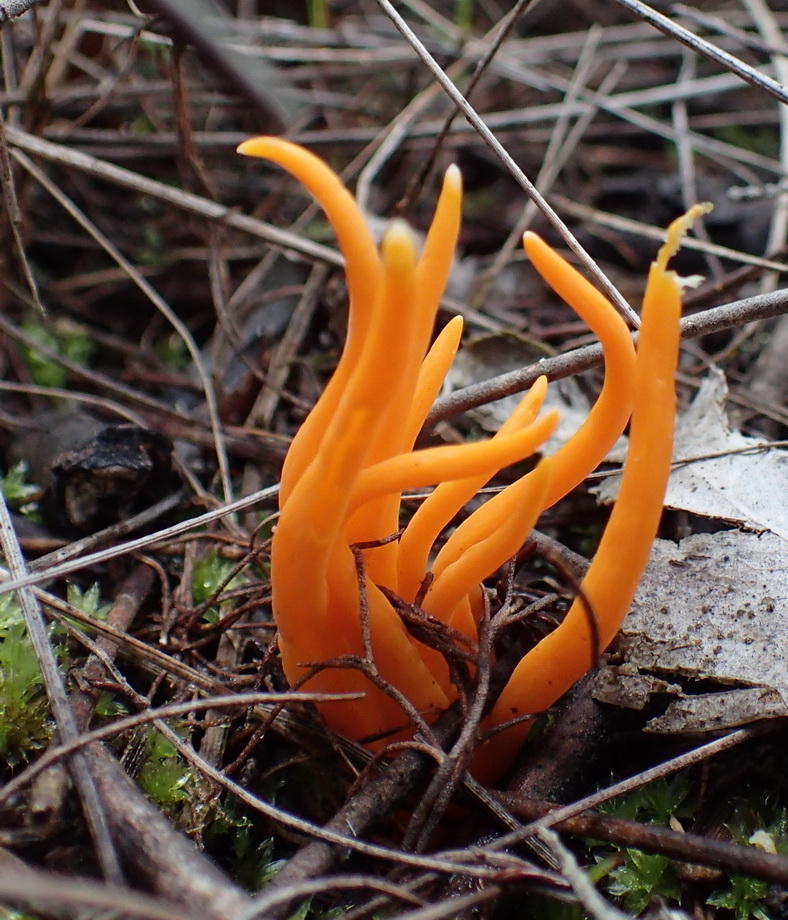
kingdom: Fungi
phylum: Basidiomycota
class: Agaricomycetes
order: Agaricales
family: Clavariaceae
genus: Clavulinopsis
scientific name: Clavulinopsis luteoalba
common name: Apricot club
